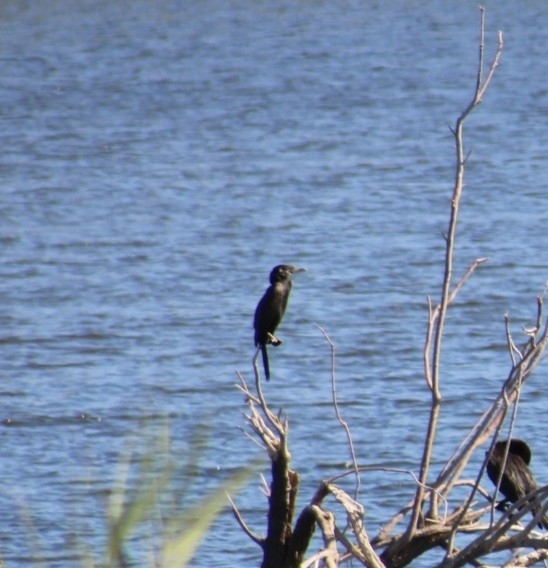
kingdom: Animalia
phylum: Chordata
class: Aves
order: Suliformes
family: Phalacrocoracidae
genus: Phalacrocorax
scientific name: Phalacrocorax brasilianus
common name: Neotropic cormorant
